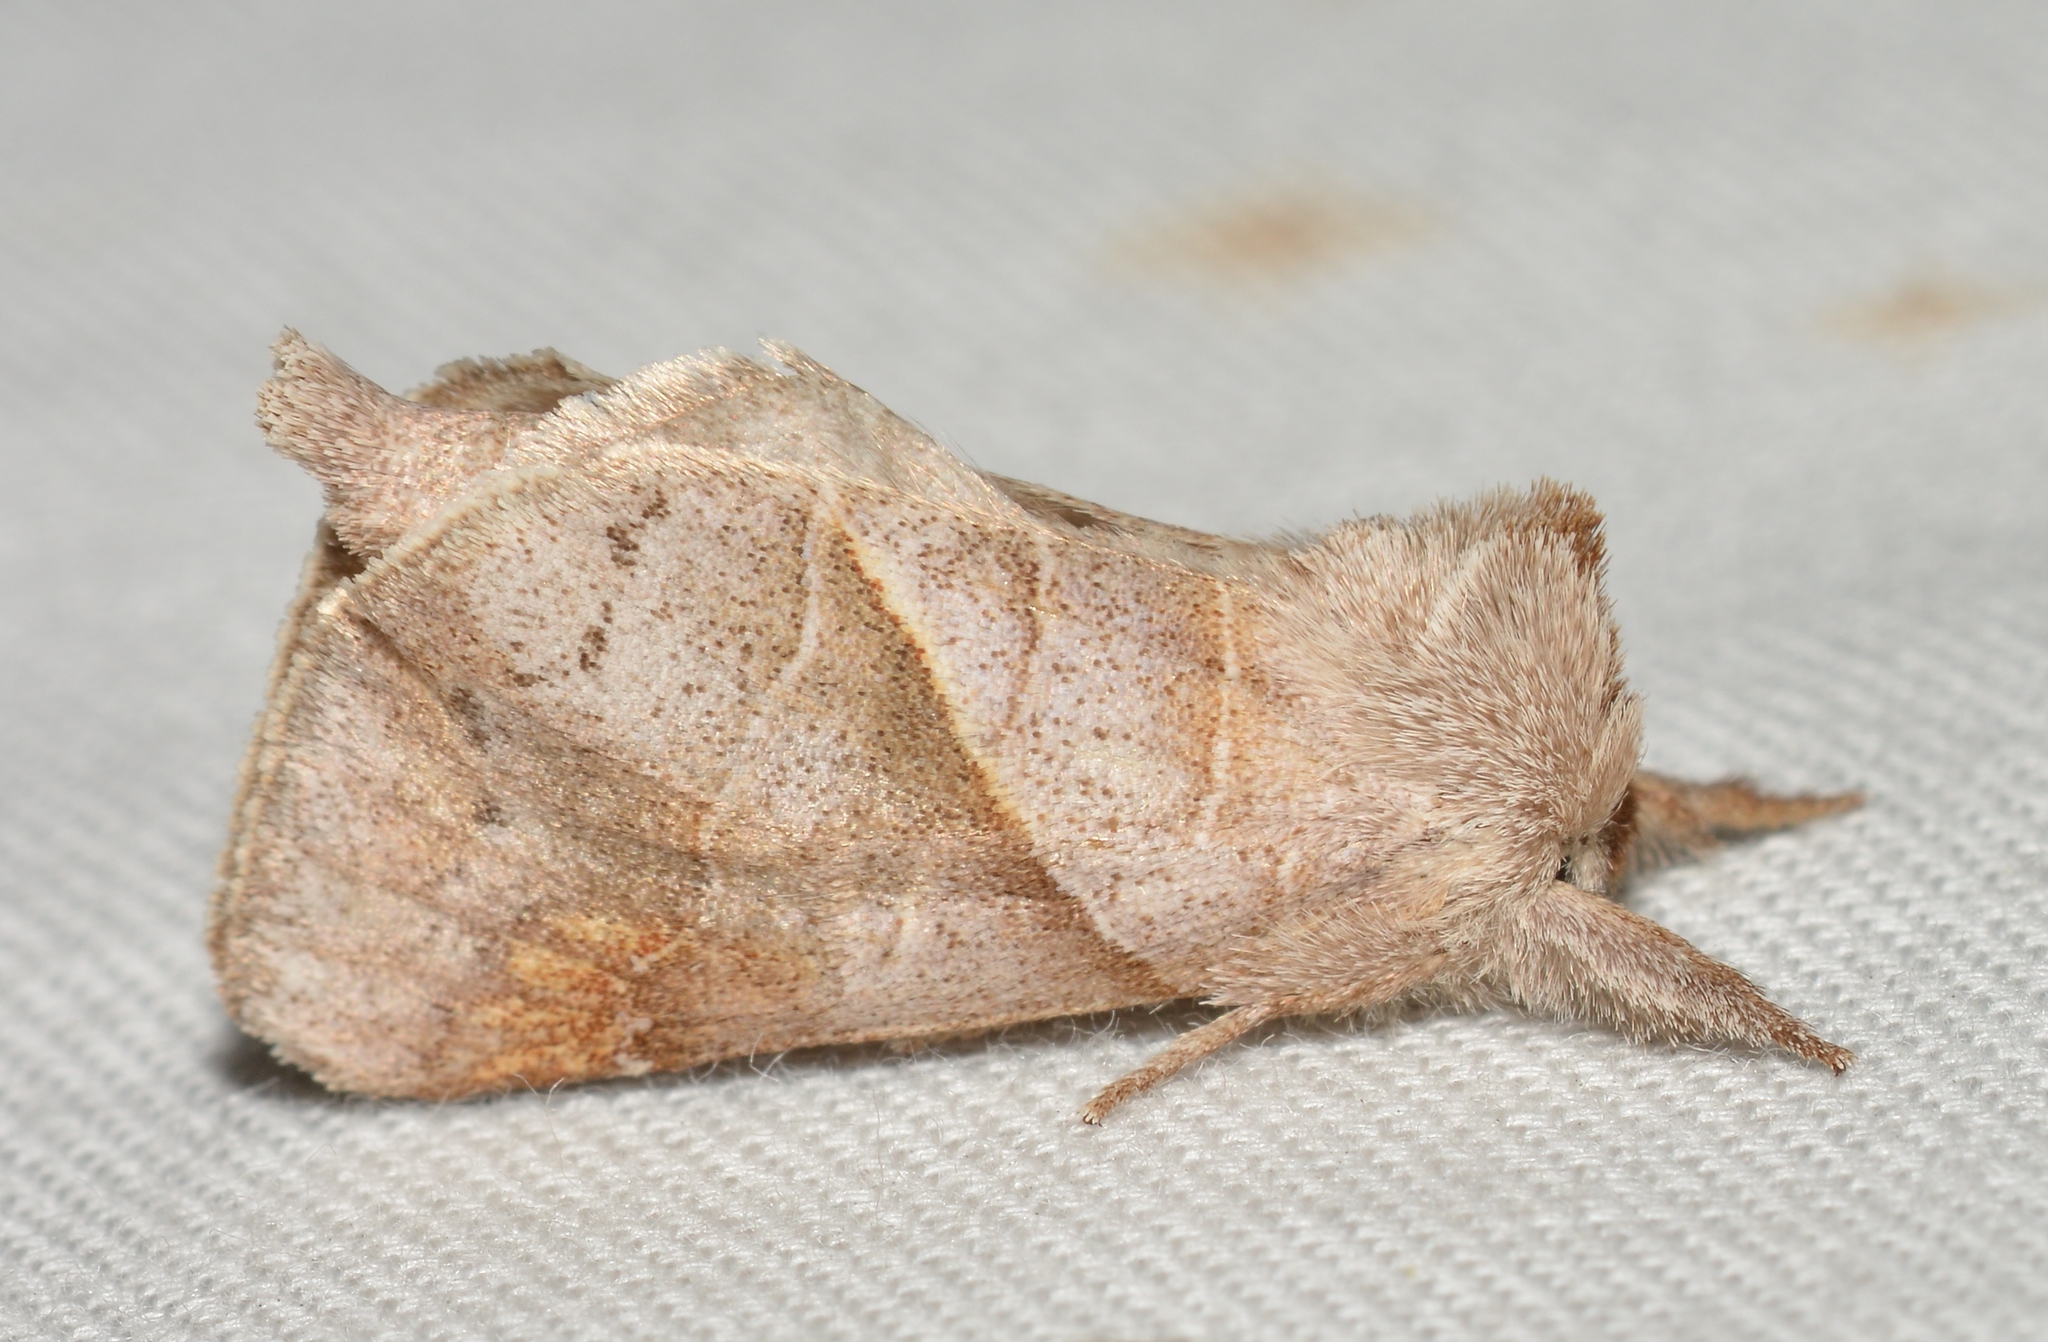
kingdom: Animalia
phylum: Arthropoda
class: Insecta
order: Lepidoptera
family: Notodontidae
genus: Clostera
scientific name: Clostera inclusa
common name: Angle-lined prominent
